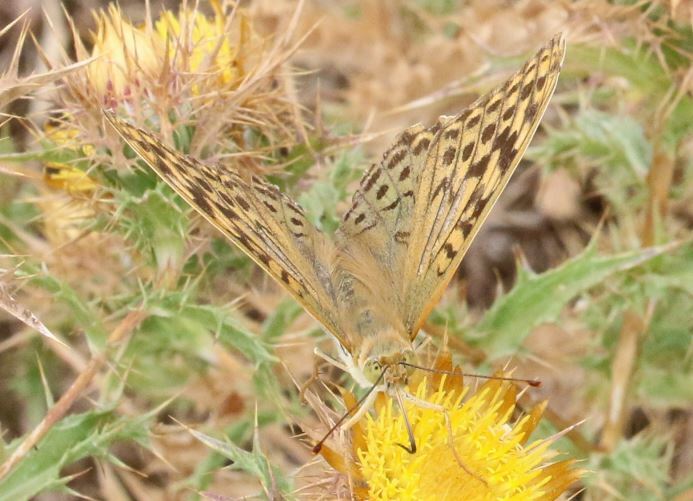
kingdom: Animalia
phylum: Arthropoda
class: Insecta
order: Lepidoptera
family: Nymphalidae
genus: Damora
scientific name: Damora pandora
